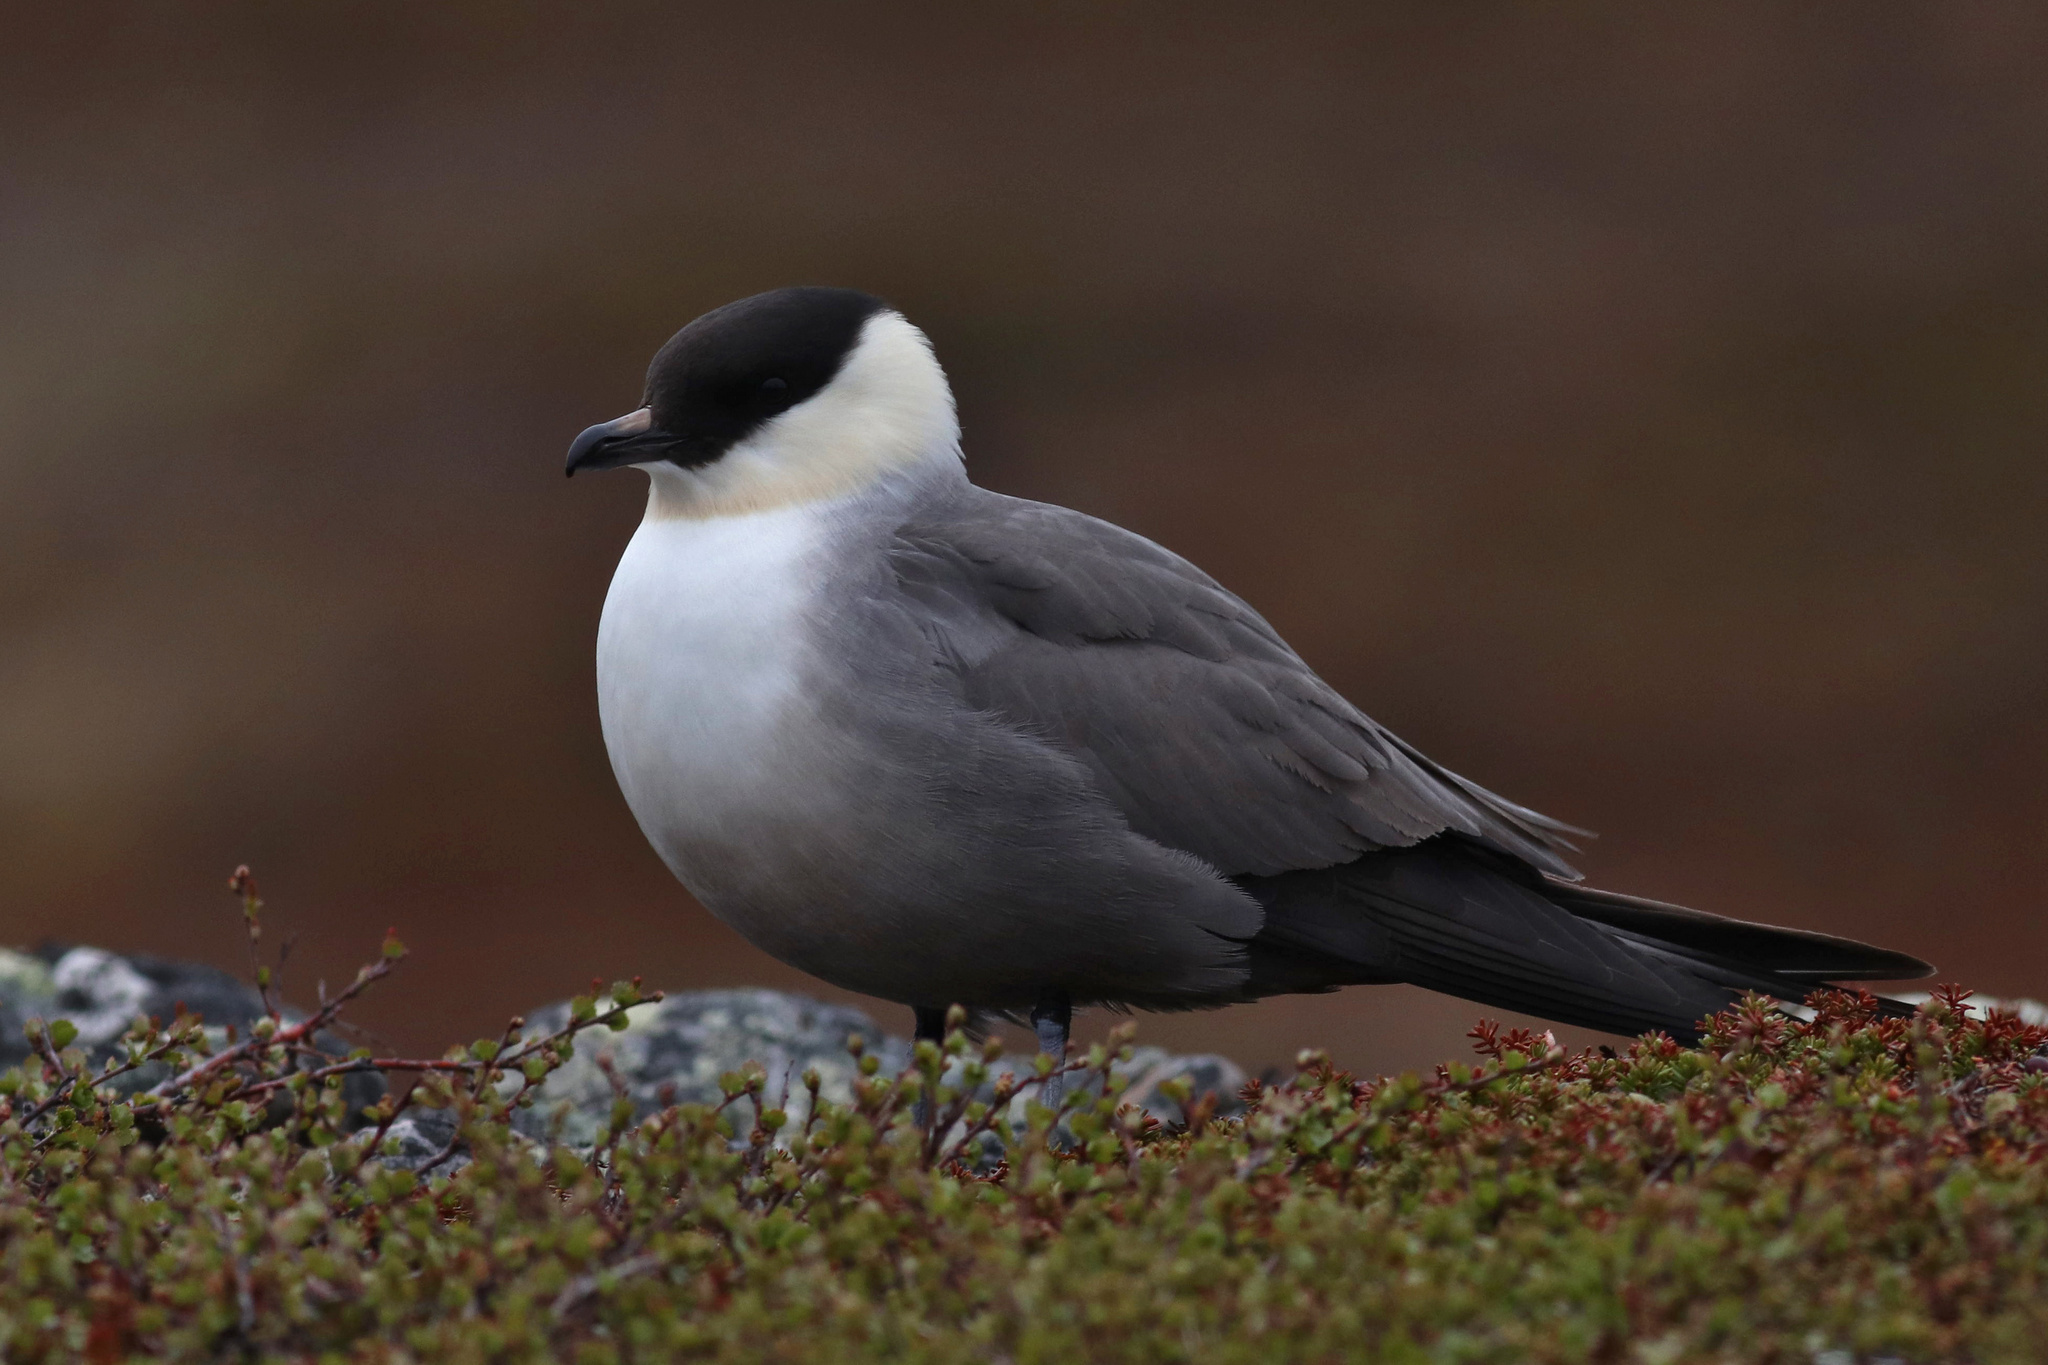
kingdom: Animalia
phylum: Chordata
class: Aves
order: Charadriiformes
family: Stercorariidae
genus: Stercorarius
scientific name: Stercorarius longicaudus
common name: Long-tailed jaeger
